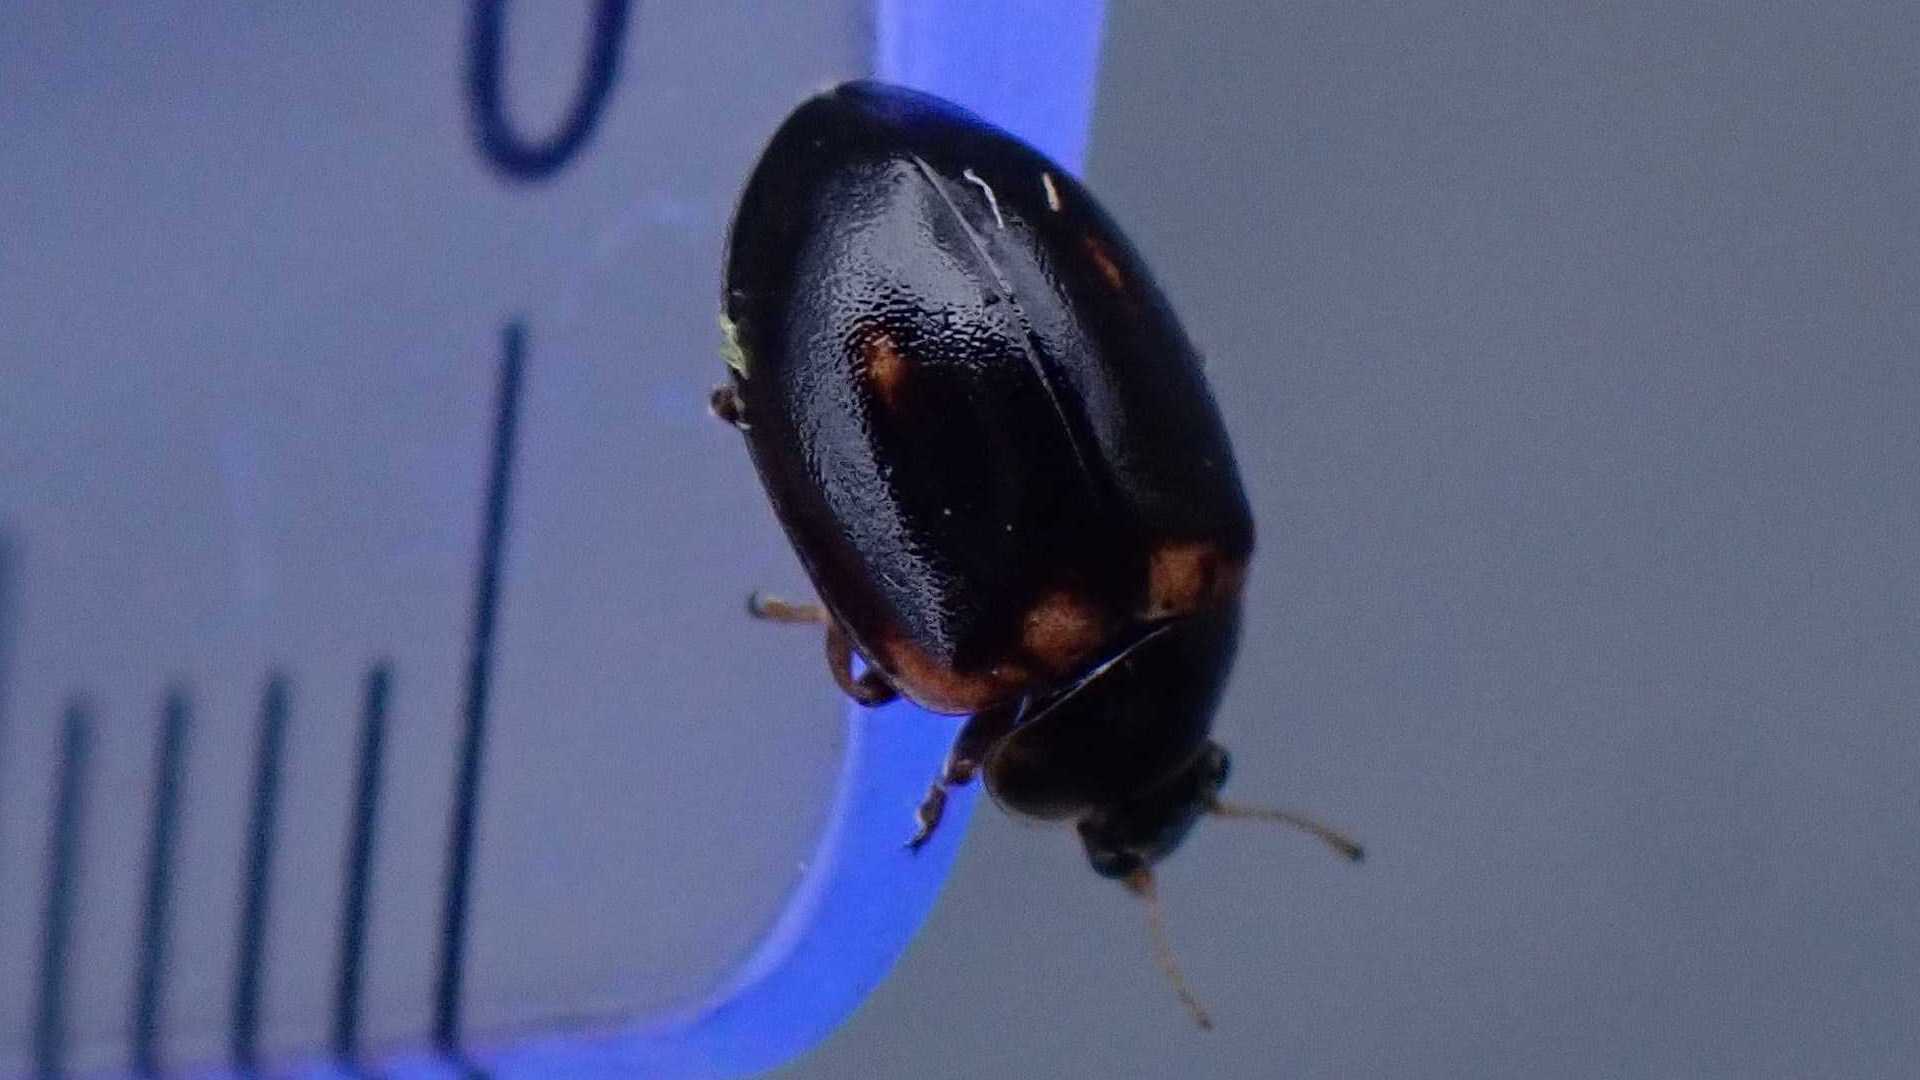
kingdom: Fungi
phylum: Ascomycota
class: Laboulbeniomycetes
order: Laboulbeniales
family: Laboulbeniaceae
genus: Hesperomyces
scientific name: Hesperomyces
